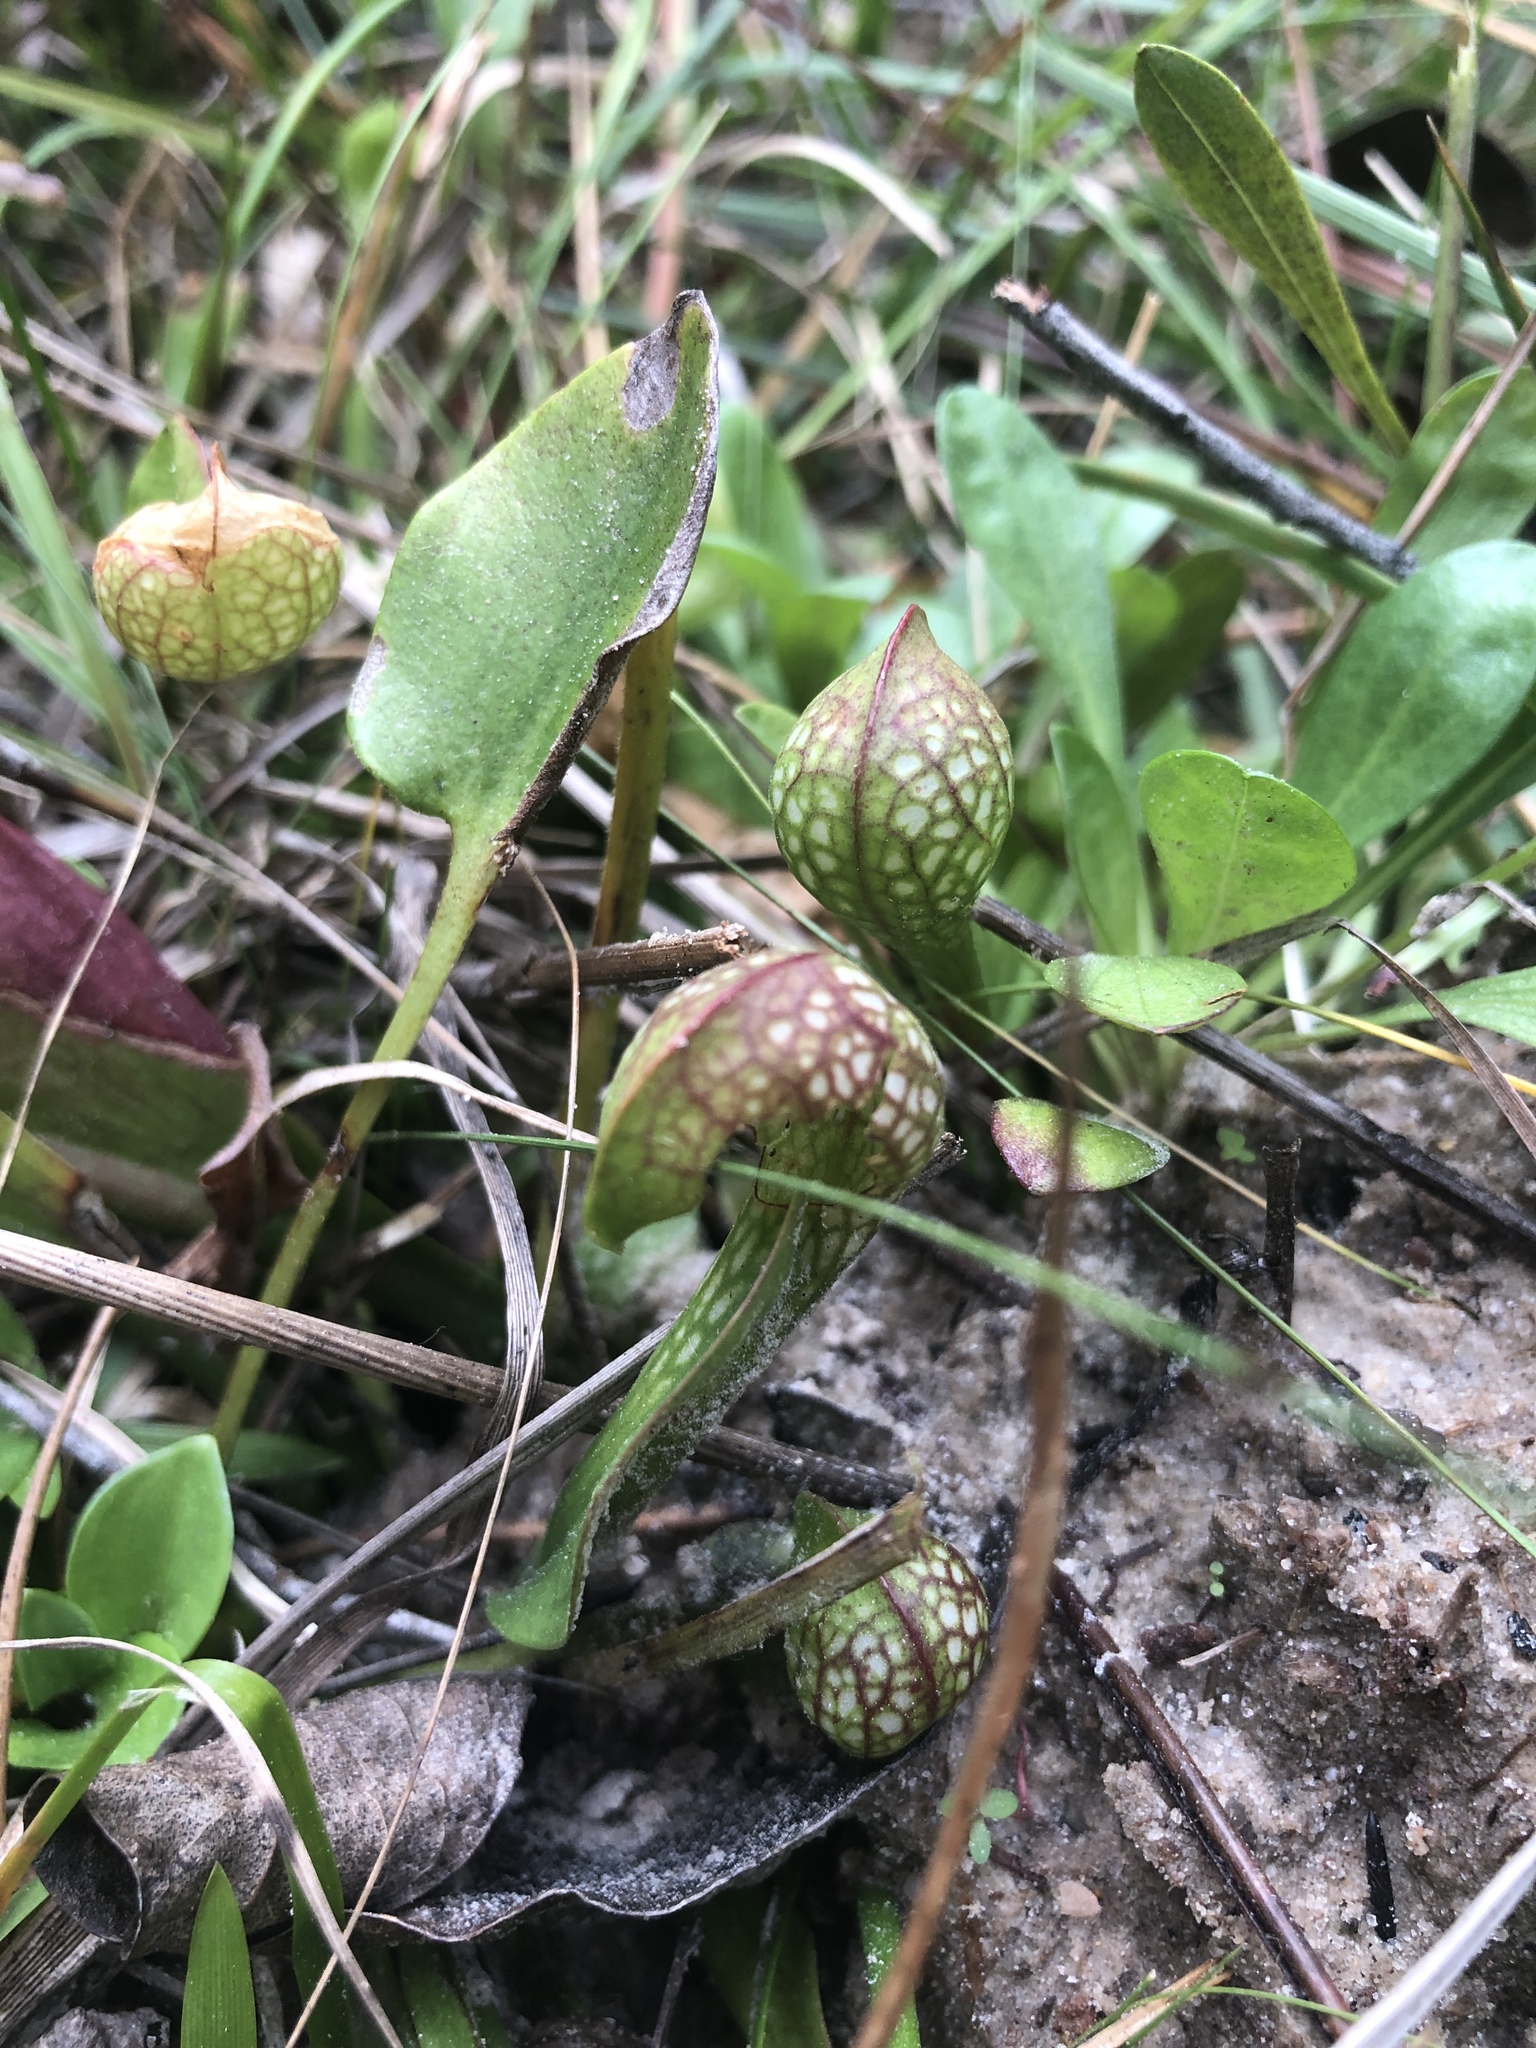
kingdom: Plantae
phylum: Tracheophyta
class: Magnoliopsida
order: Ericales
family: Sarraceniaceae
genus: Sarracenia
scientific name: Sarracenia psittacina
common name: Parrot pitcherplant
